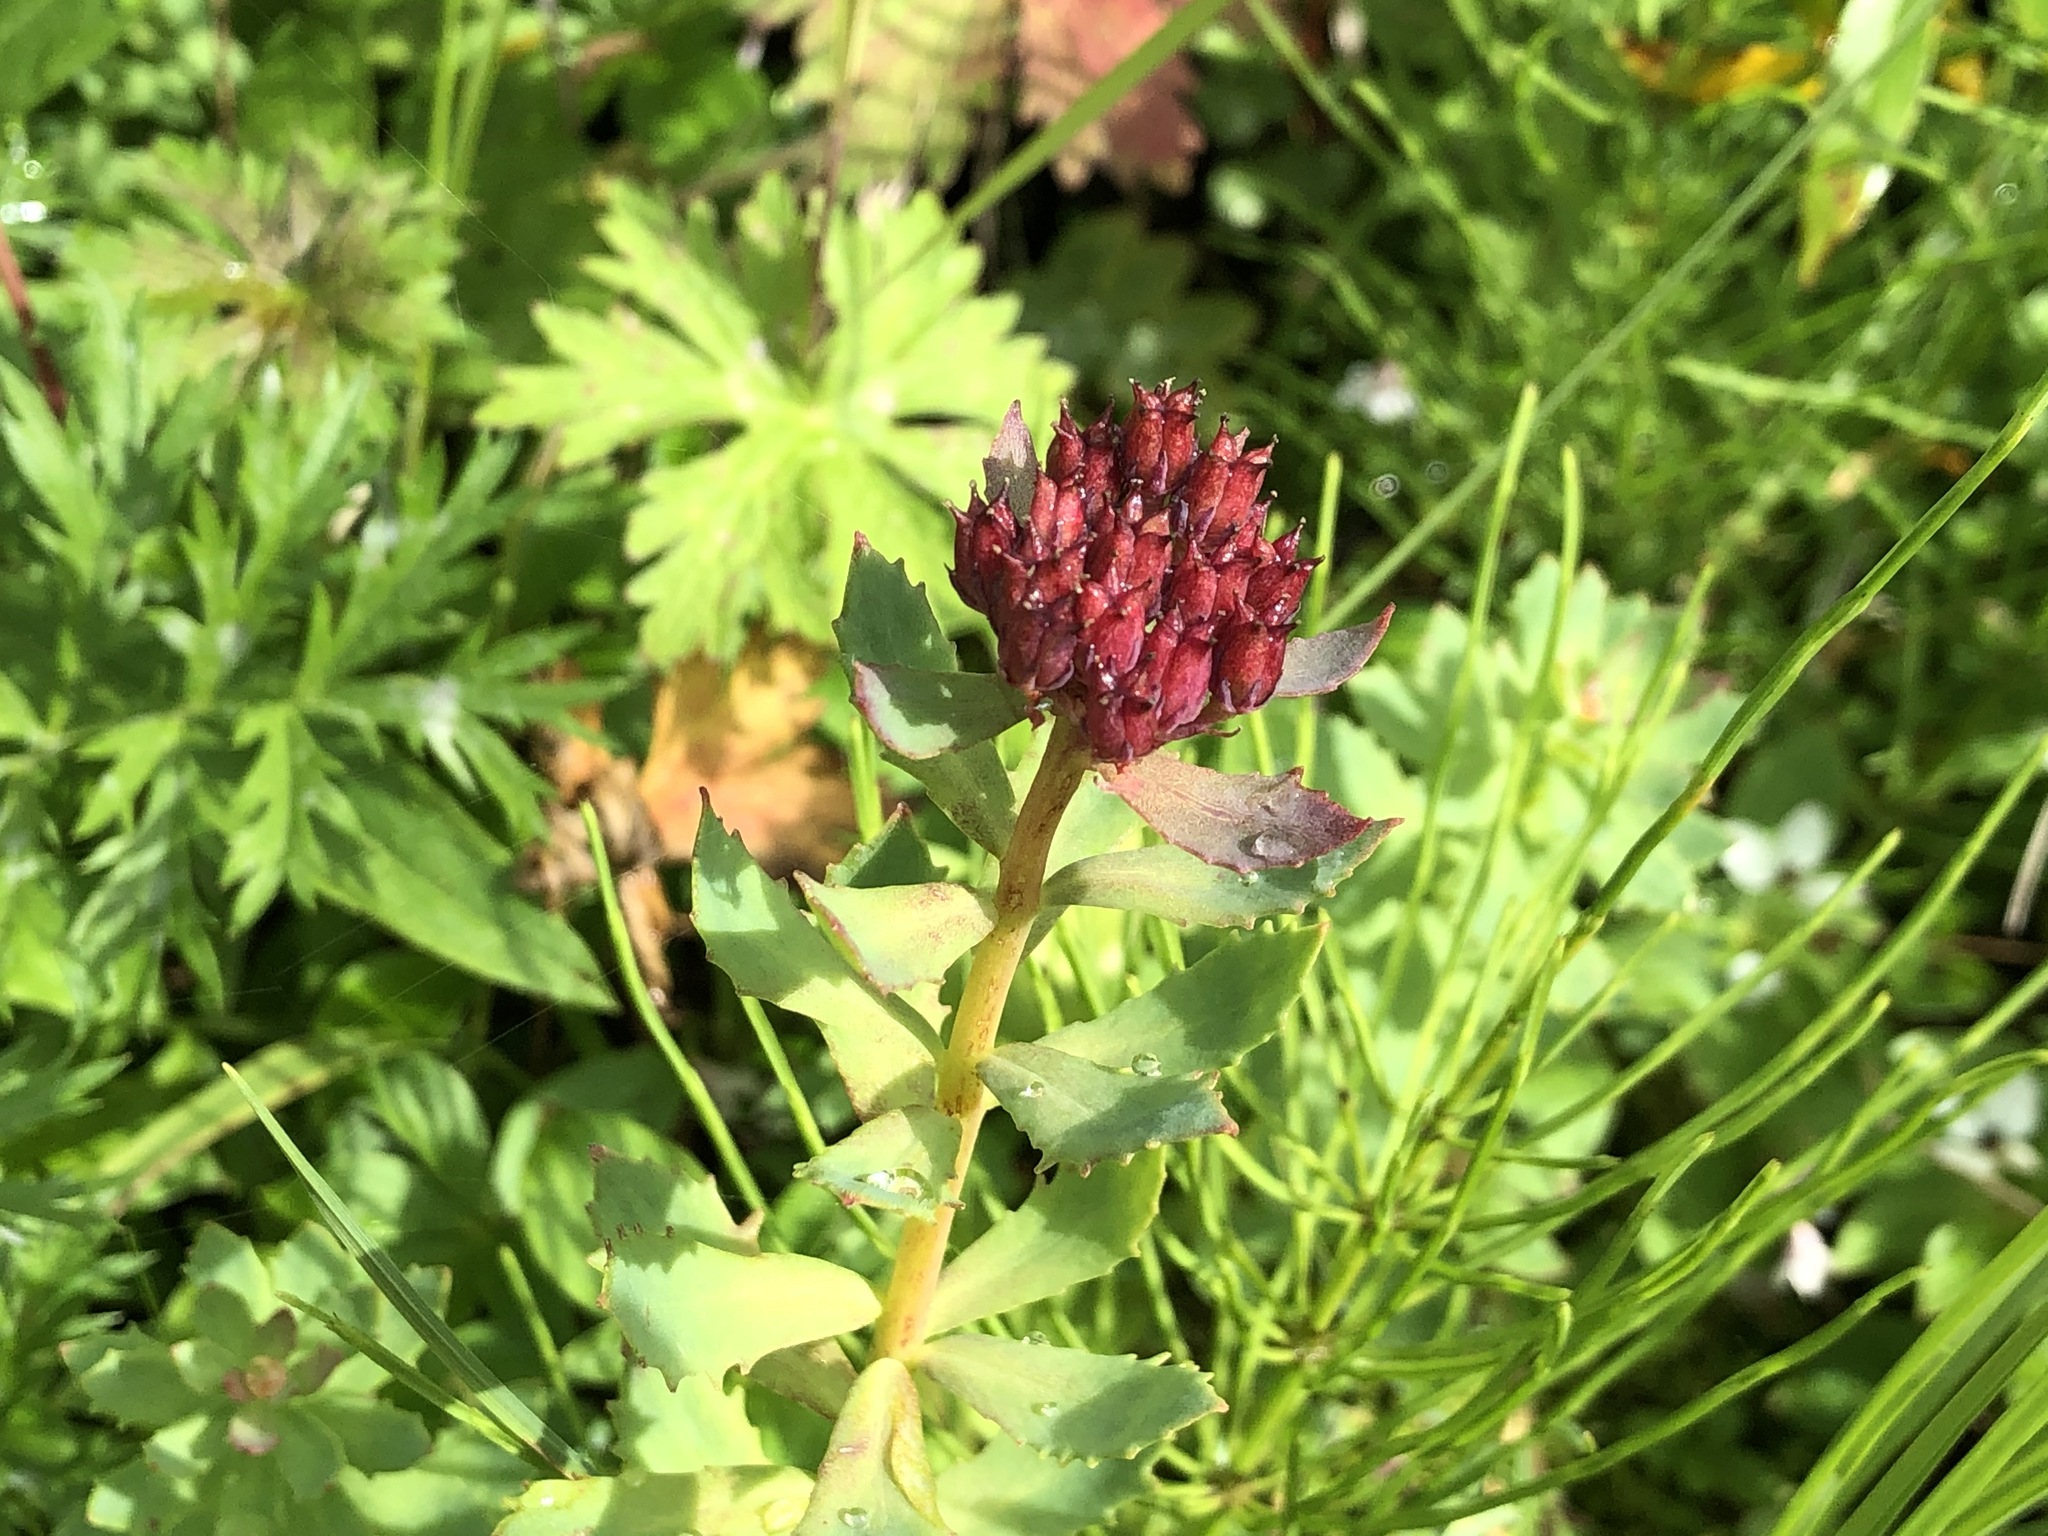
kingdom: Plantae
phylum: Tracheophyta
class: Magnoliopsida
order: Saxifragales
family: Crassulaceae
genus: Rhodiola
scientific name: Rhodiola integrifolia
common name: Western roseroot
